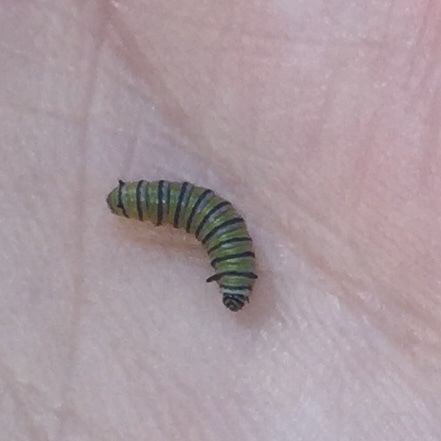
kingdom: Animalia
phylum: Arthropoda
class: Insecta
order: Lepidoptera
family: Nymphalidae
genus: Danaus
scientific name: Danaus plexippus
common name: Monarch
